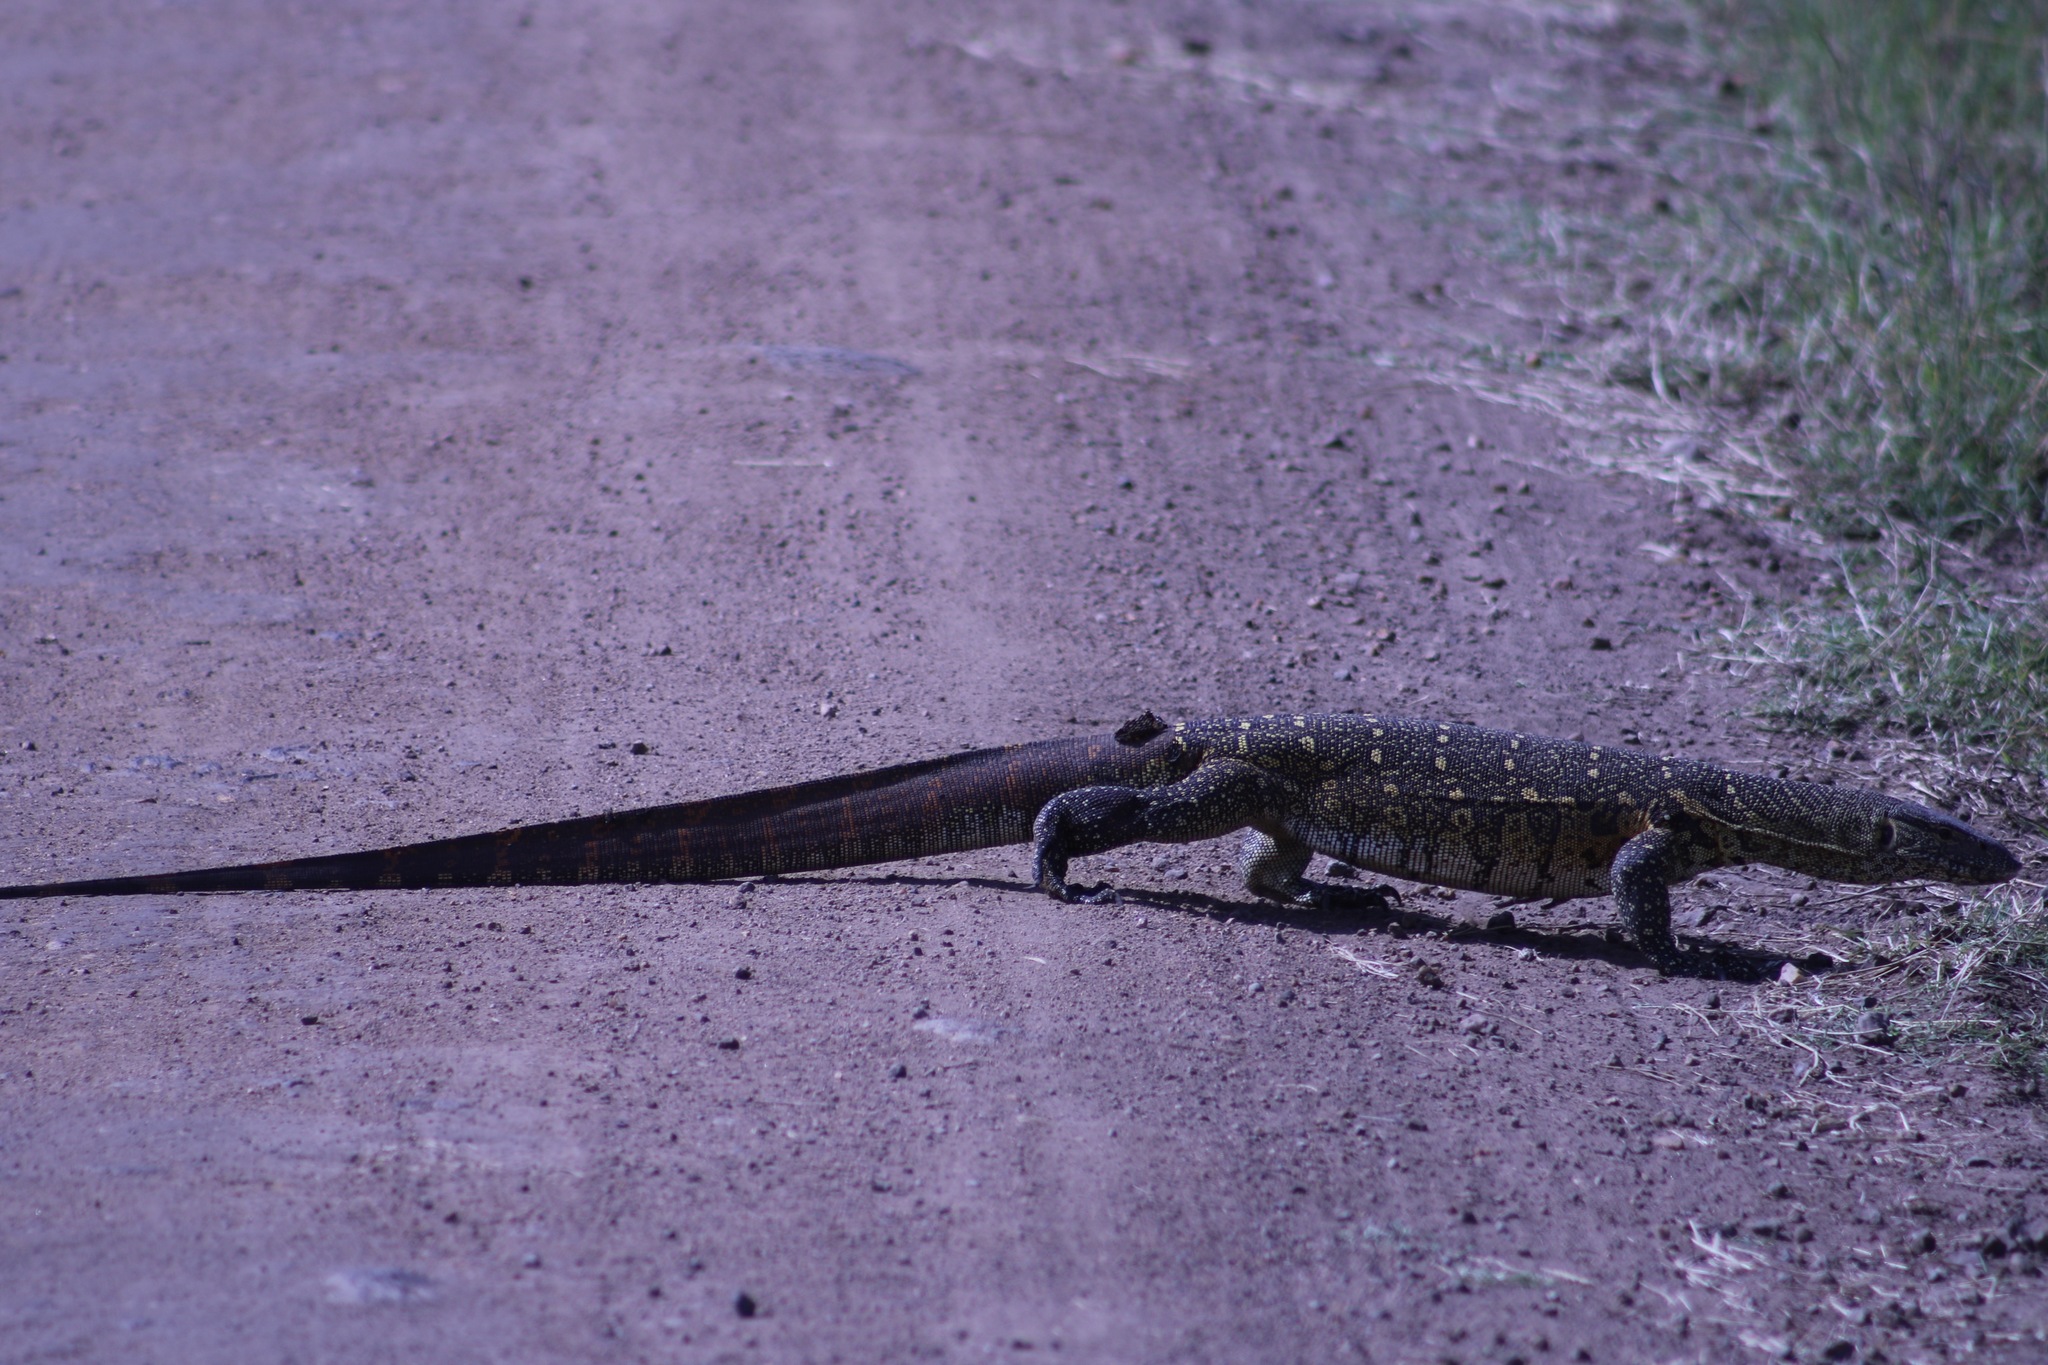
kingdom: Animalia
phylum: Chordata
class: Squamata
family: Varanidae
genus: Varanus
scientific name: Varanus niloticus
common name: Nile monitor
